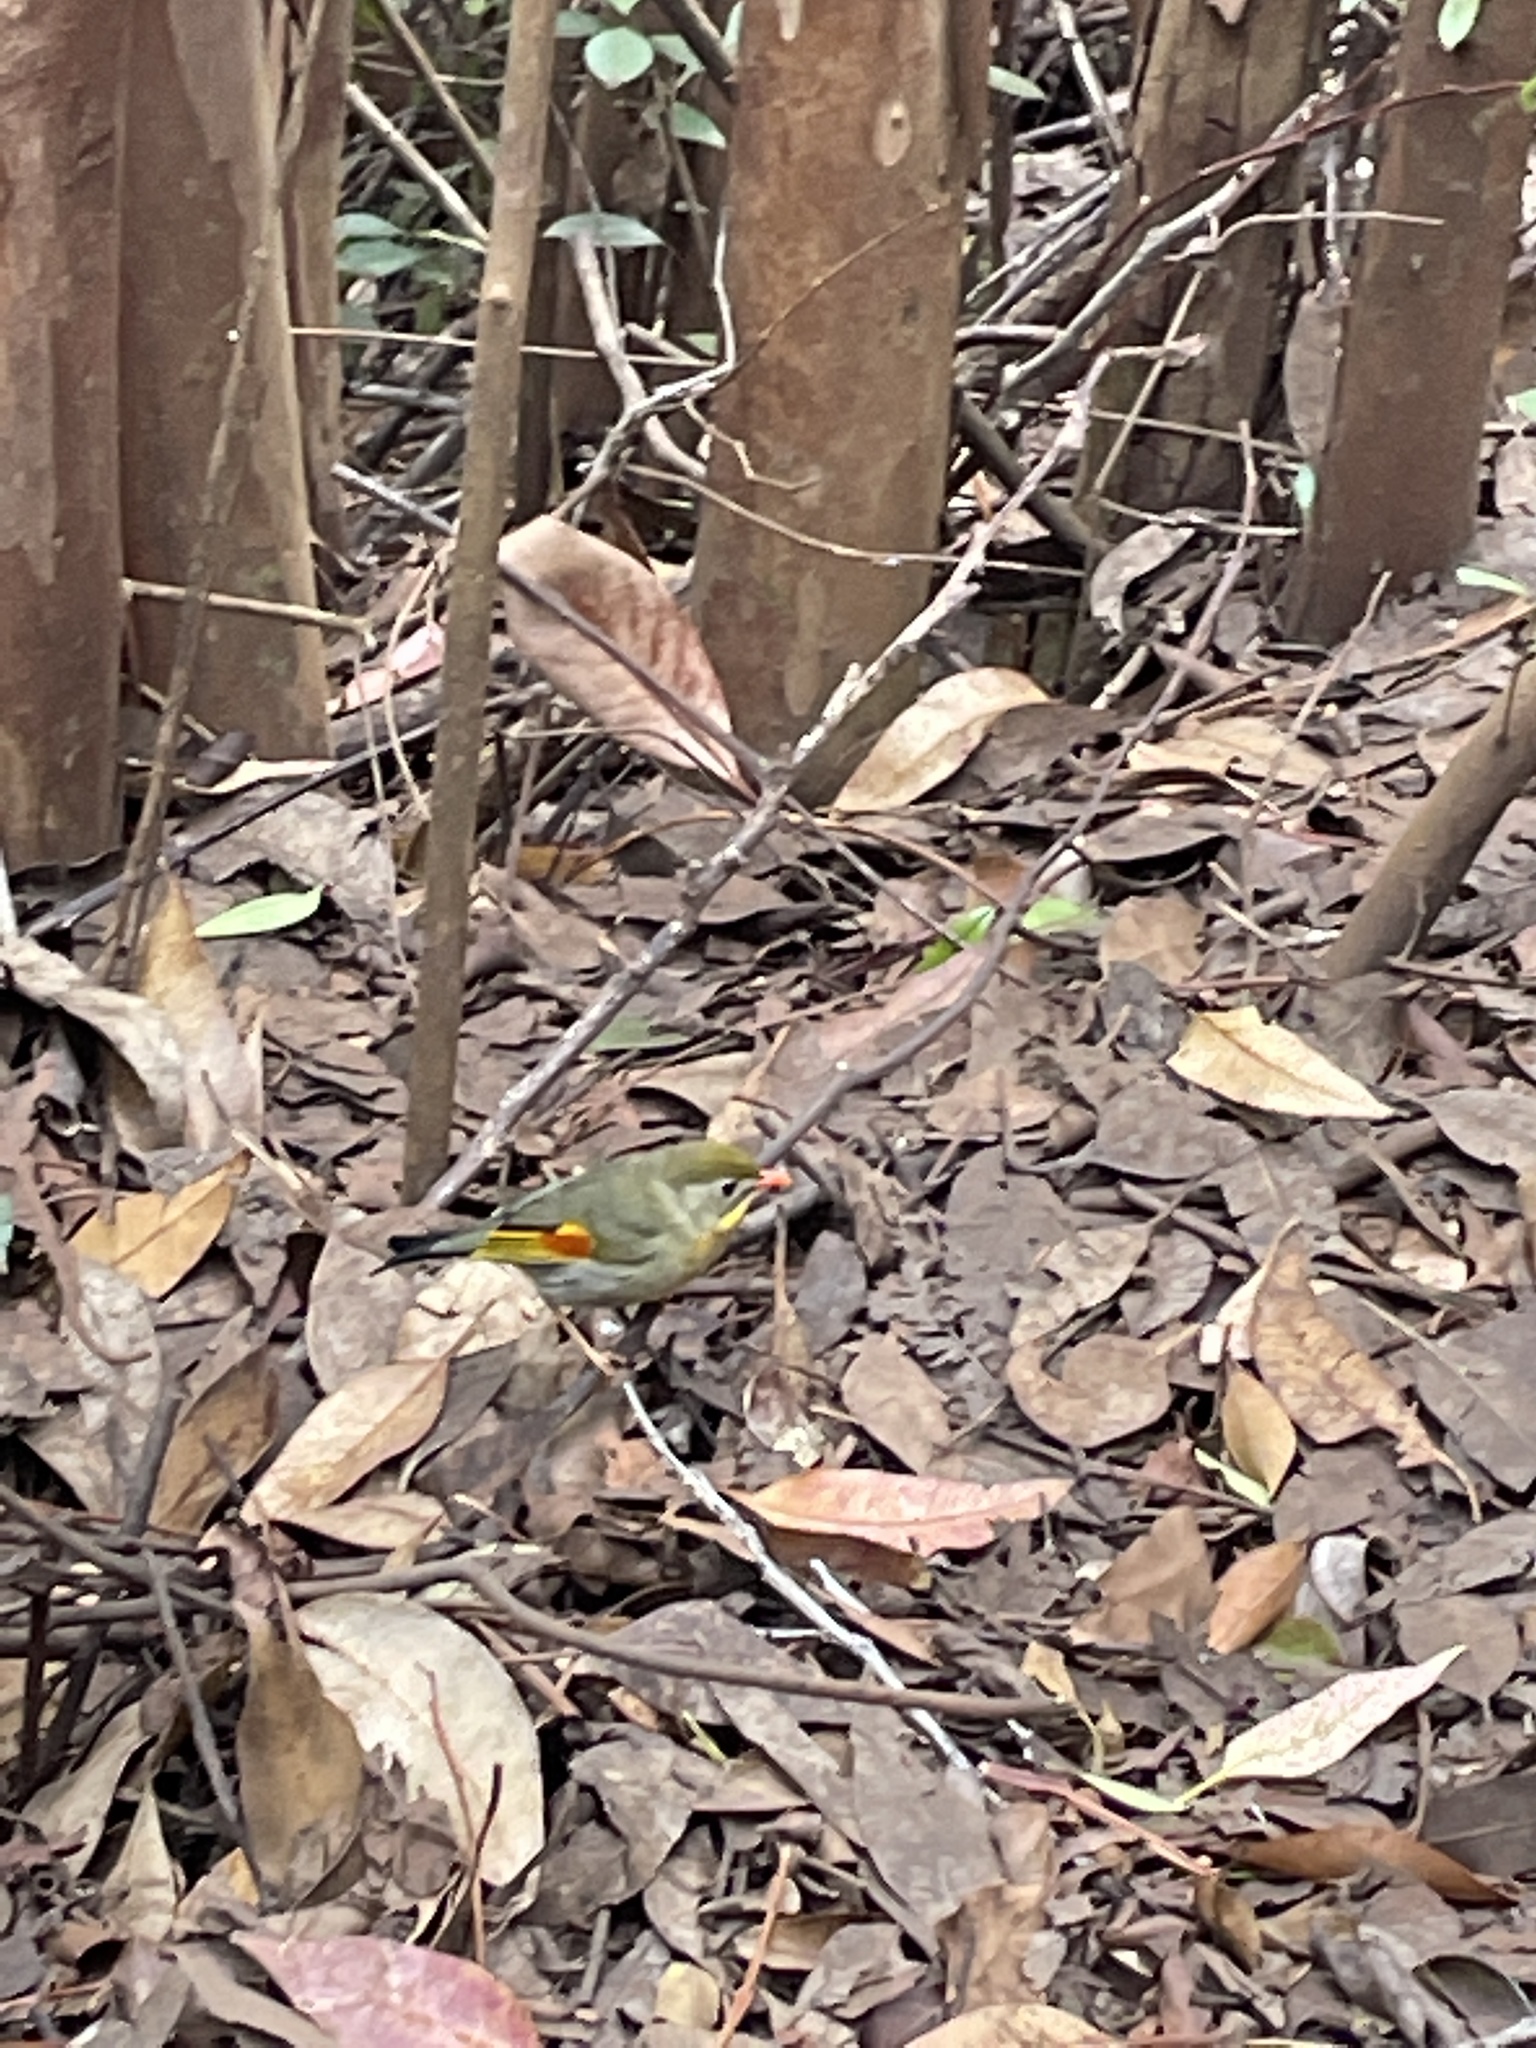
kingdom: Animalia
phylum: Chordata
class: Aves
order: Passeriformes
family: Leiothrichidae
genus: Leiothrix
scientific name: Leiothrix lutea
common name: Red-billed leiothrix
